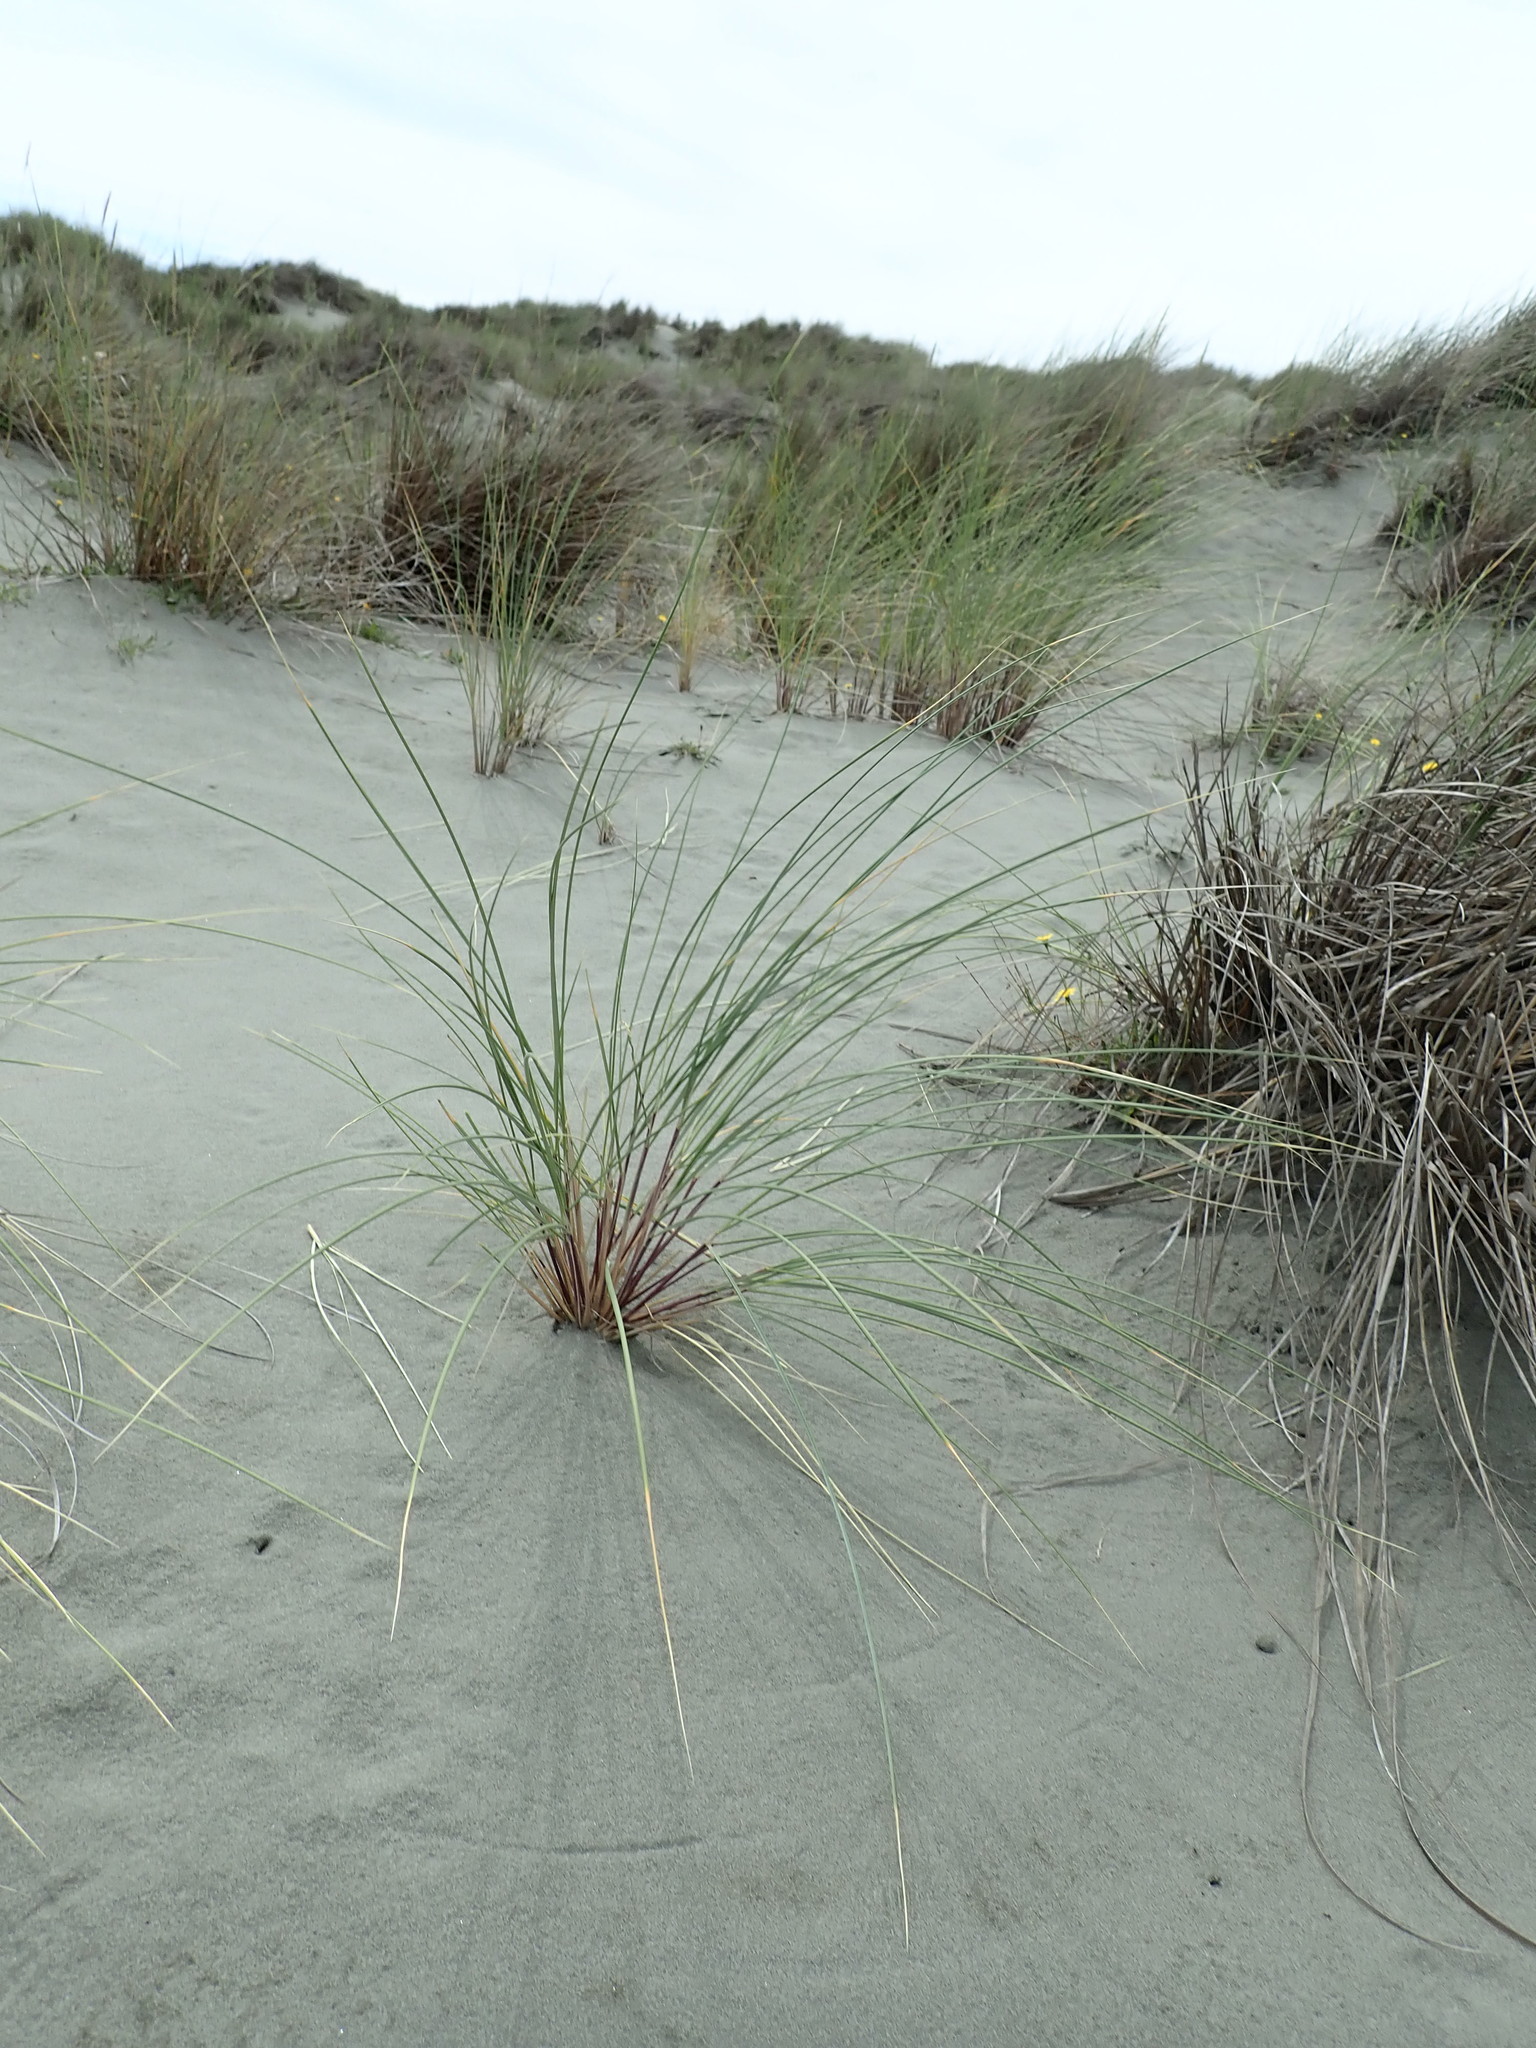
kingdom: Plantae
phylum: Tracheophyta
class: Liliopsida
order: Poales
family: Poaceae
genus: Calamagrostis
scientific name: Calamagrostis arenaria
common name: European beachgrass
